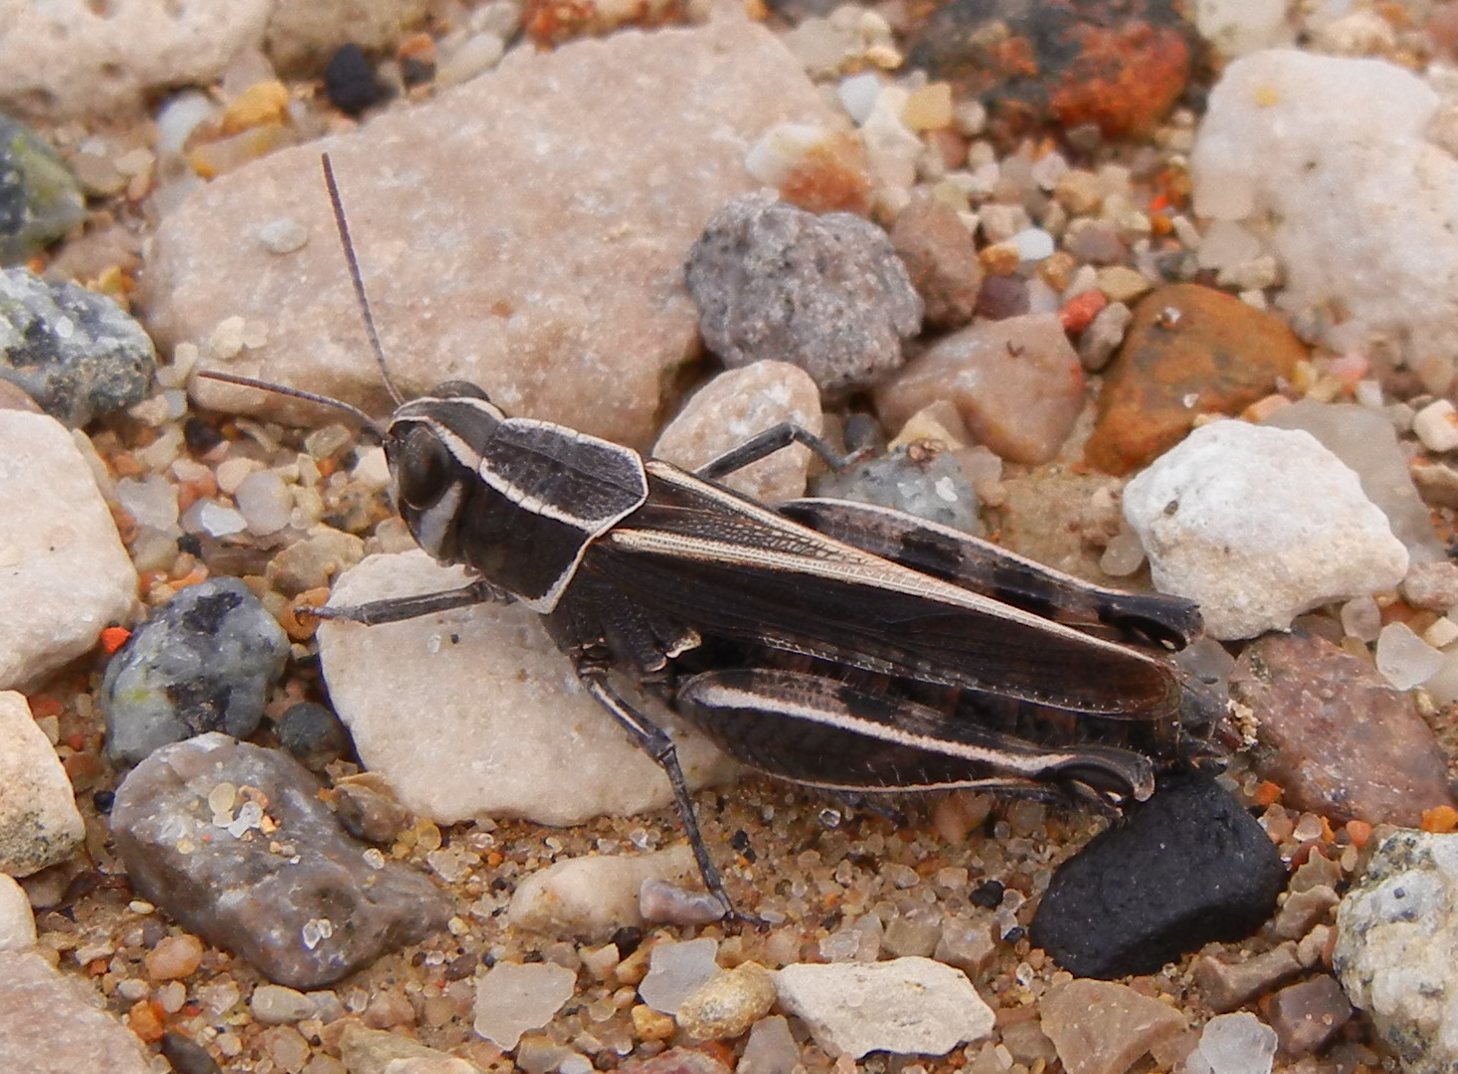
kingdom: Animalia
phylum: Arthropoda
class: Insecta
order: Orthoptera
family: Acrididae
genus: Calliptamus
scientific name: Calliptamus barbarus
